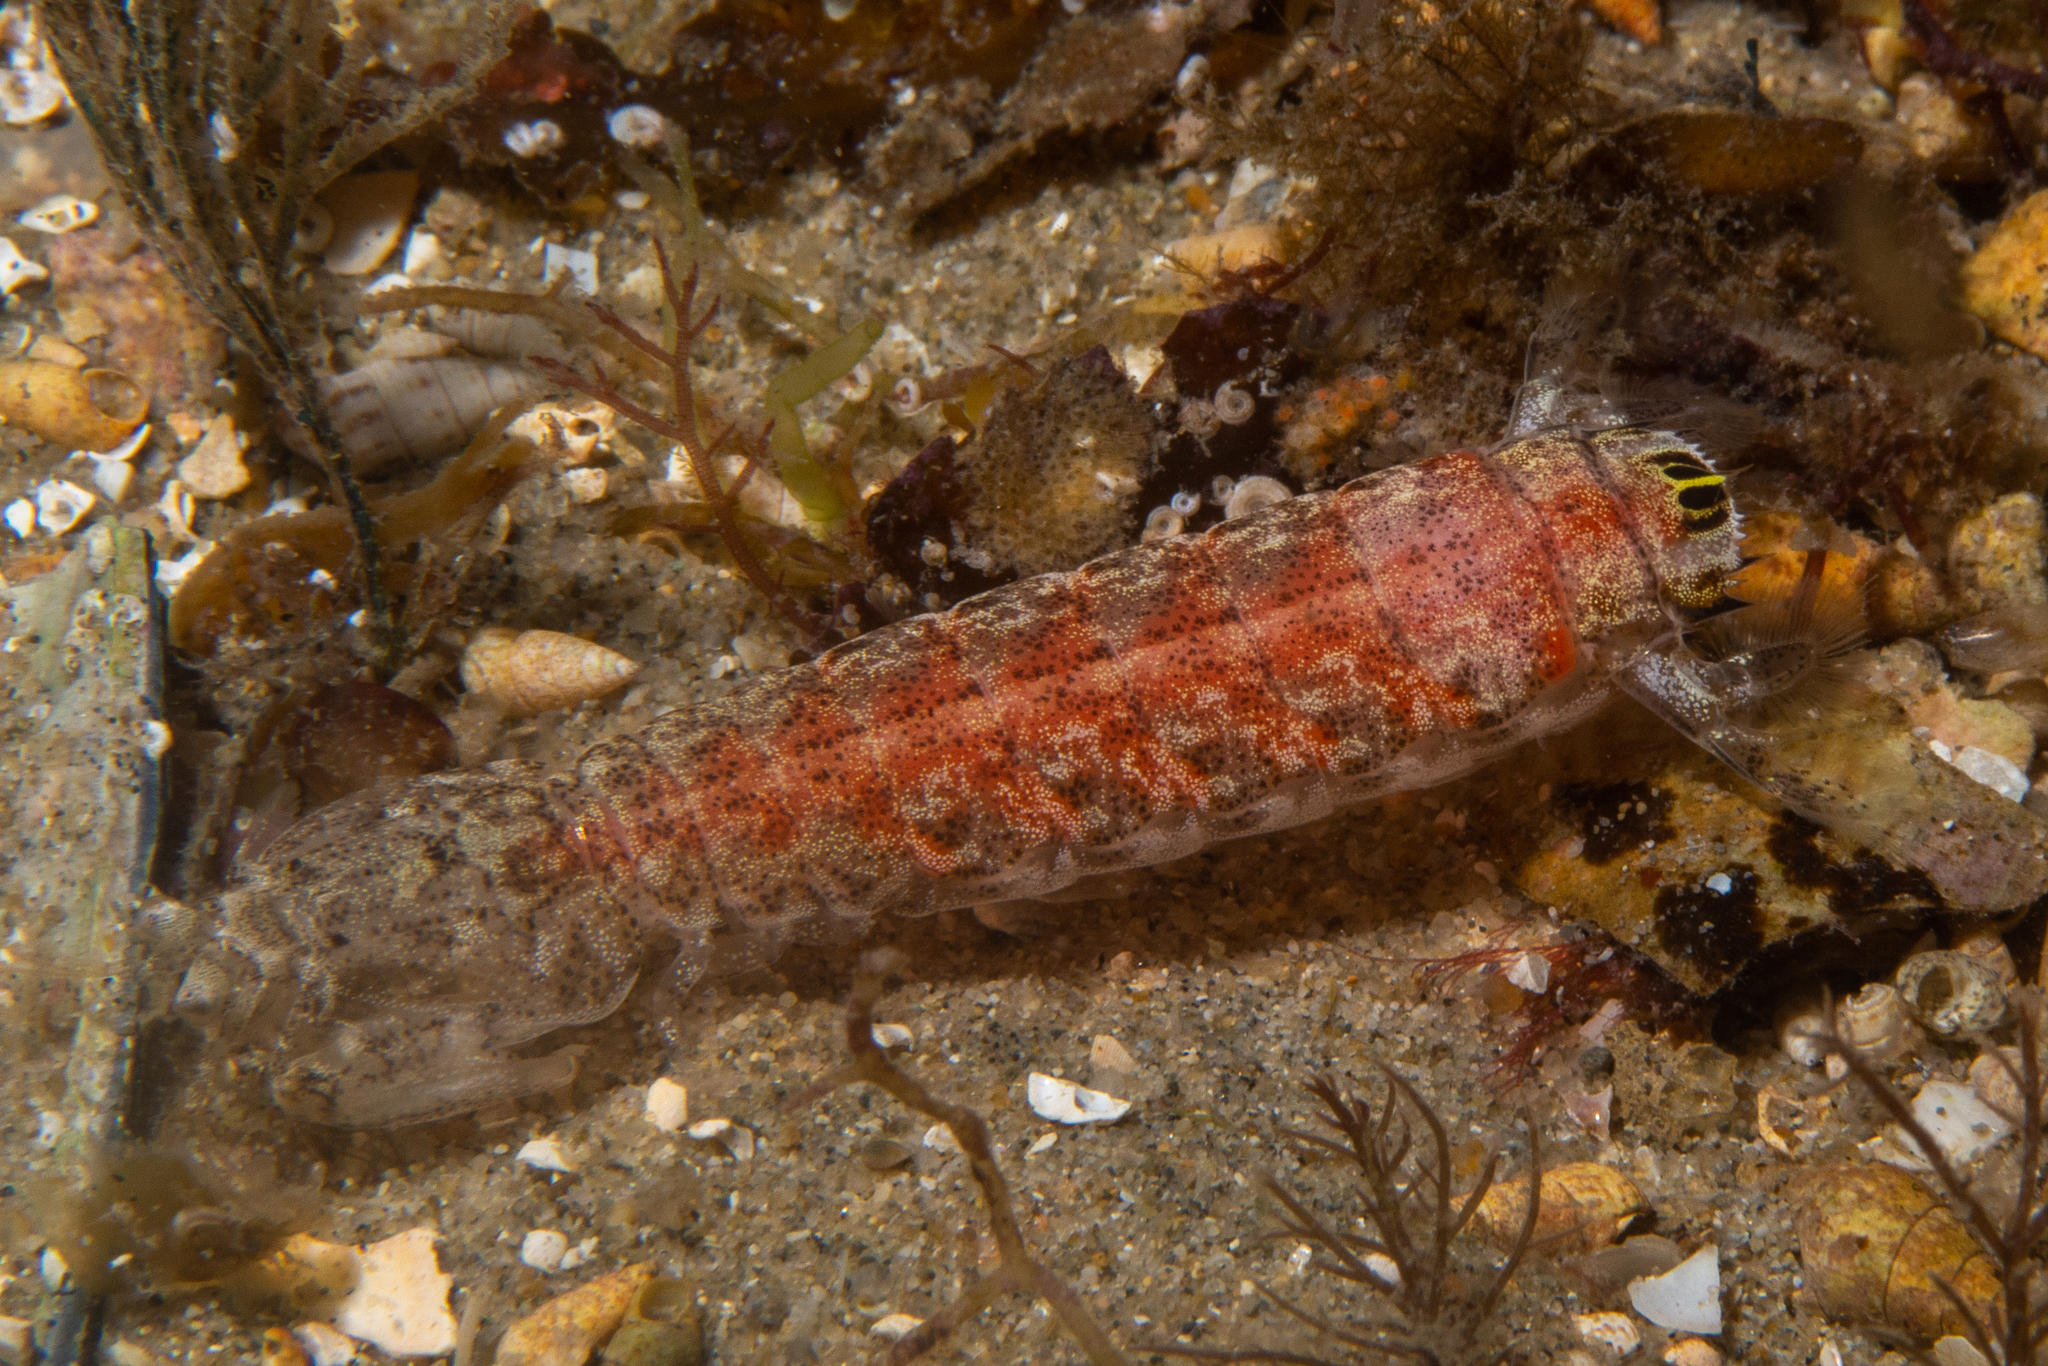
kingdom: Animalia
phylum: Arthropoda
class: Malacostraca
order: Stomatopoda
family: Nannosquillidae
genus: Austrosquilla
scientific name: Austrosquilla osculans
